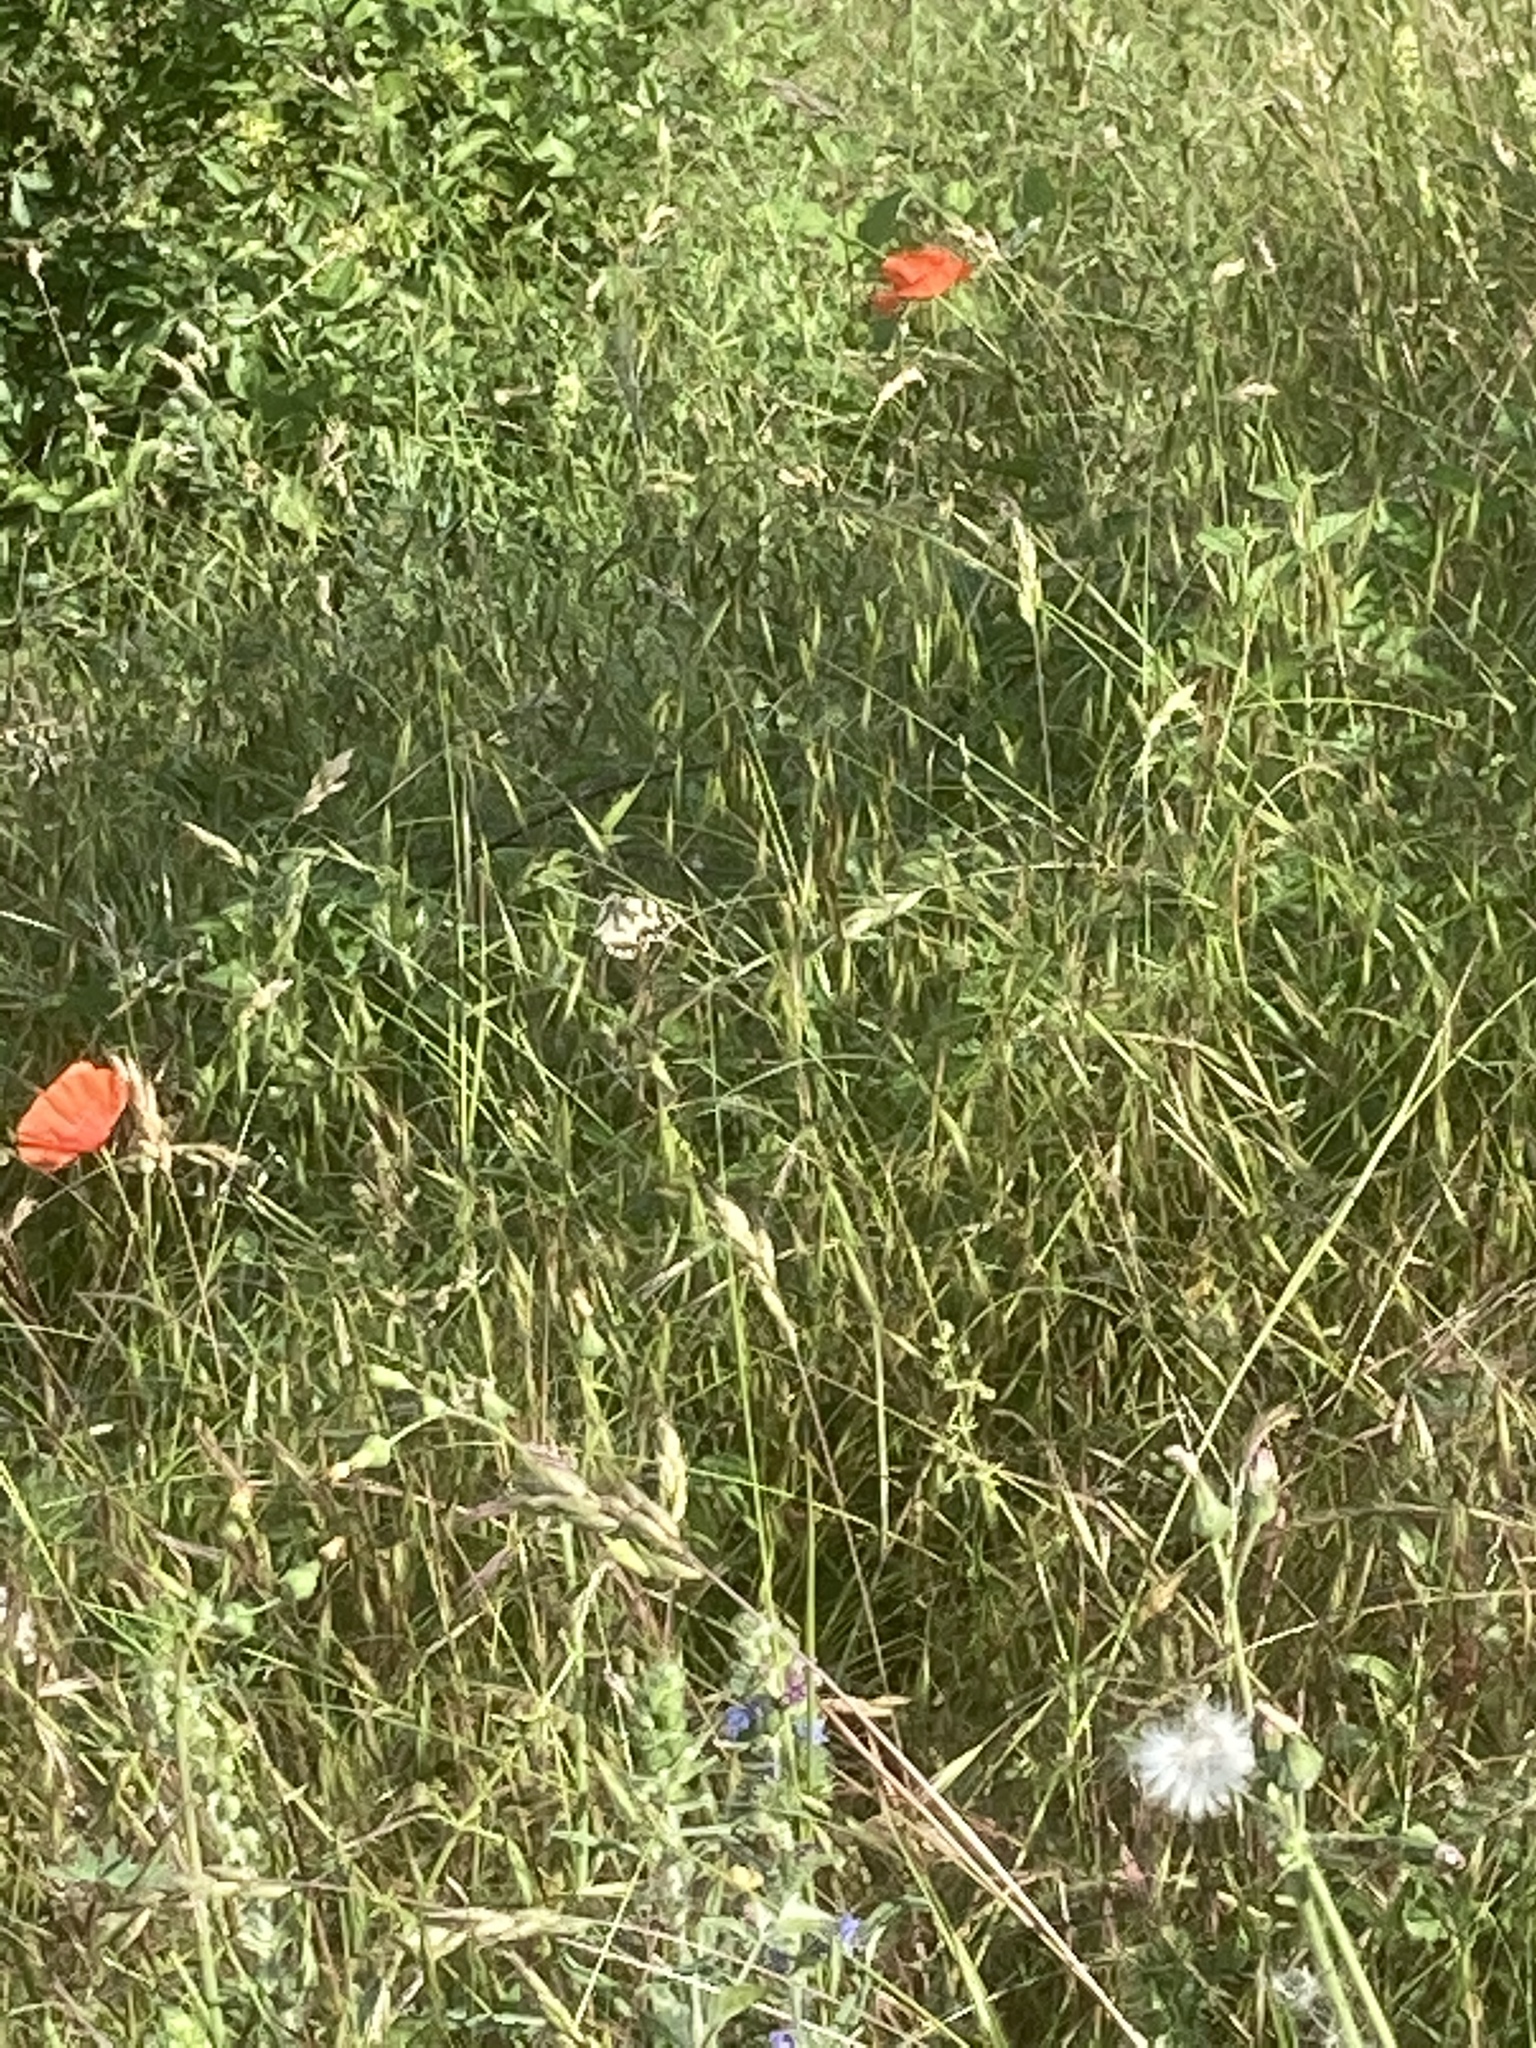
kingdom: Animalia
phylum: Arthropoda
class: Insecta
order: Lepidoptera
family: Nymphalidae
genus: Melanargia
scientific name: Melanargia galathea
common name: Marbled white
